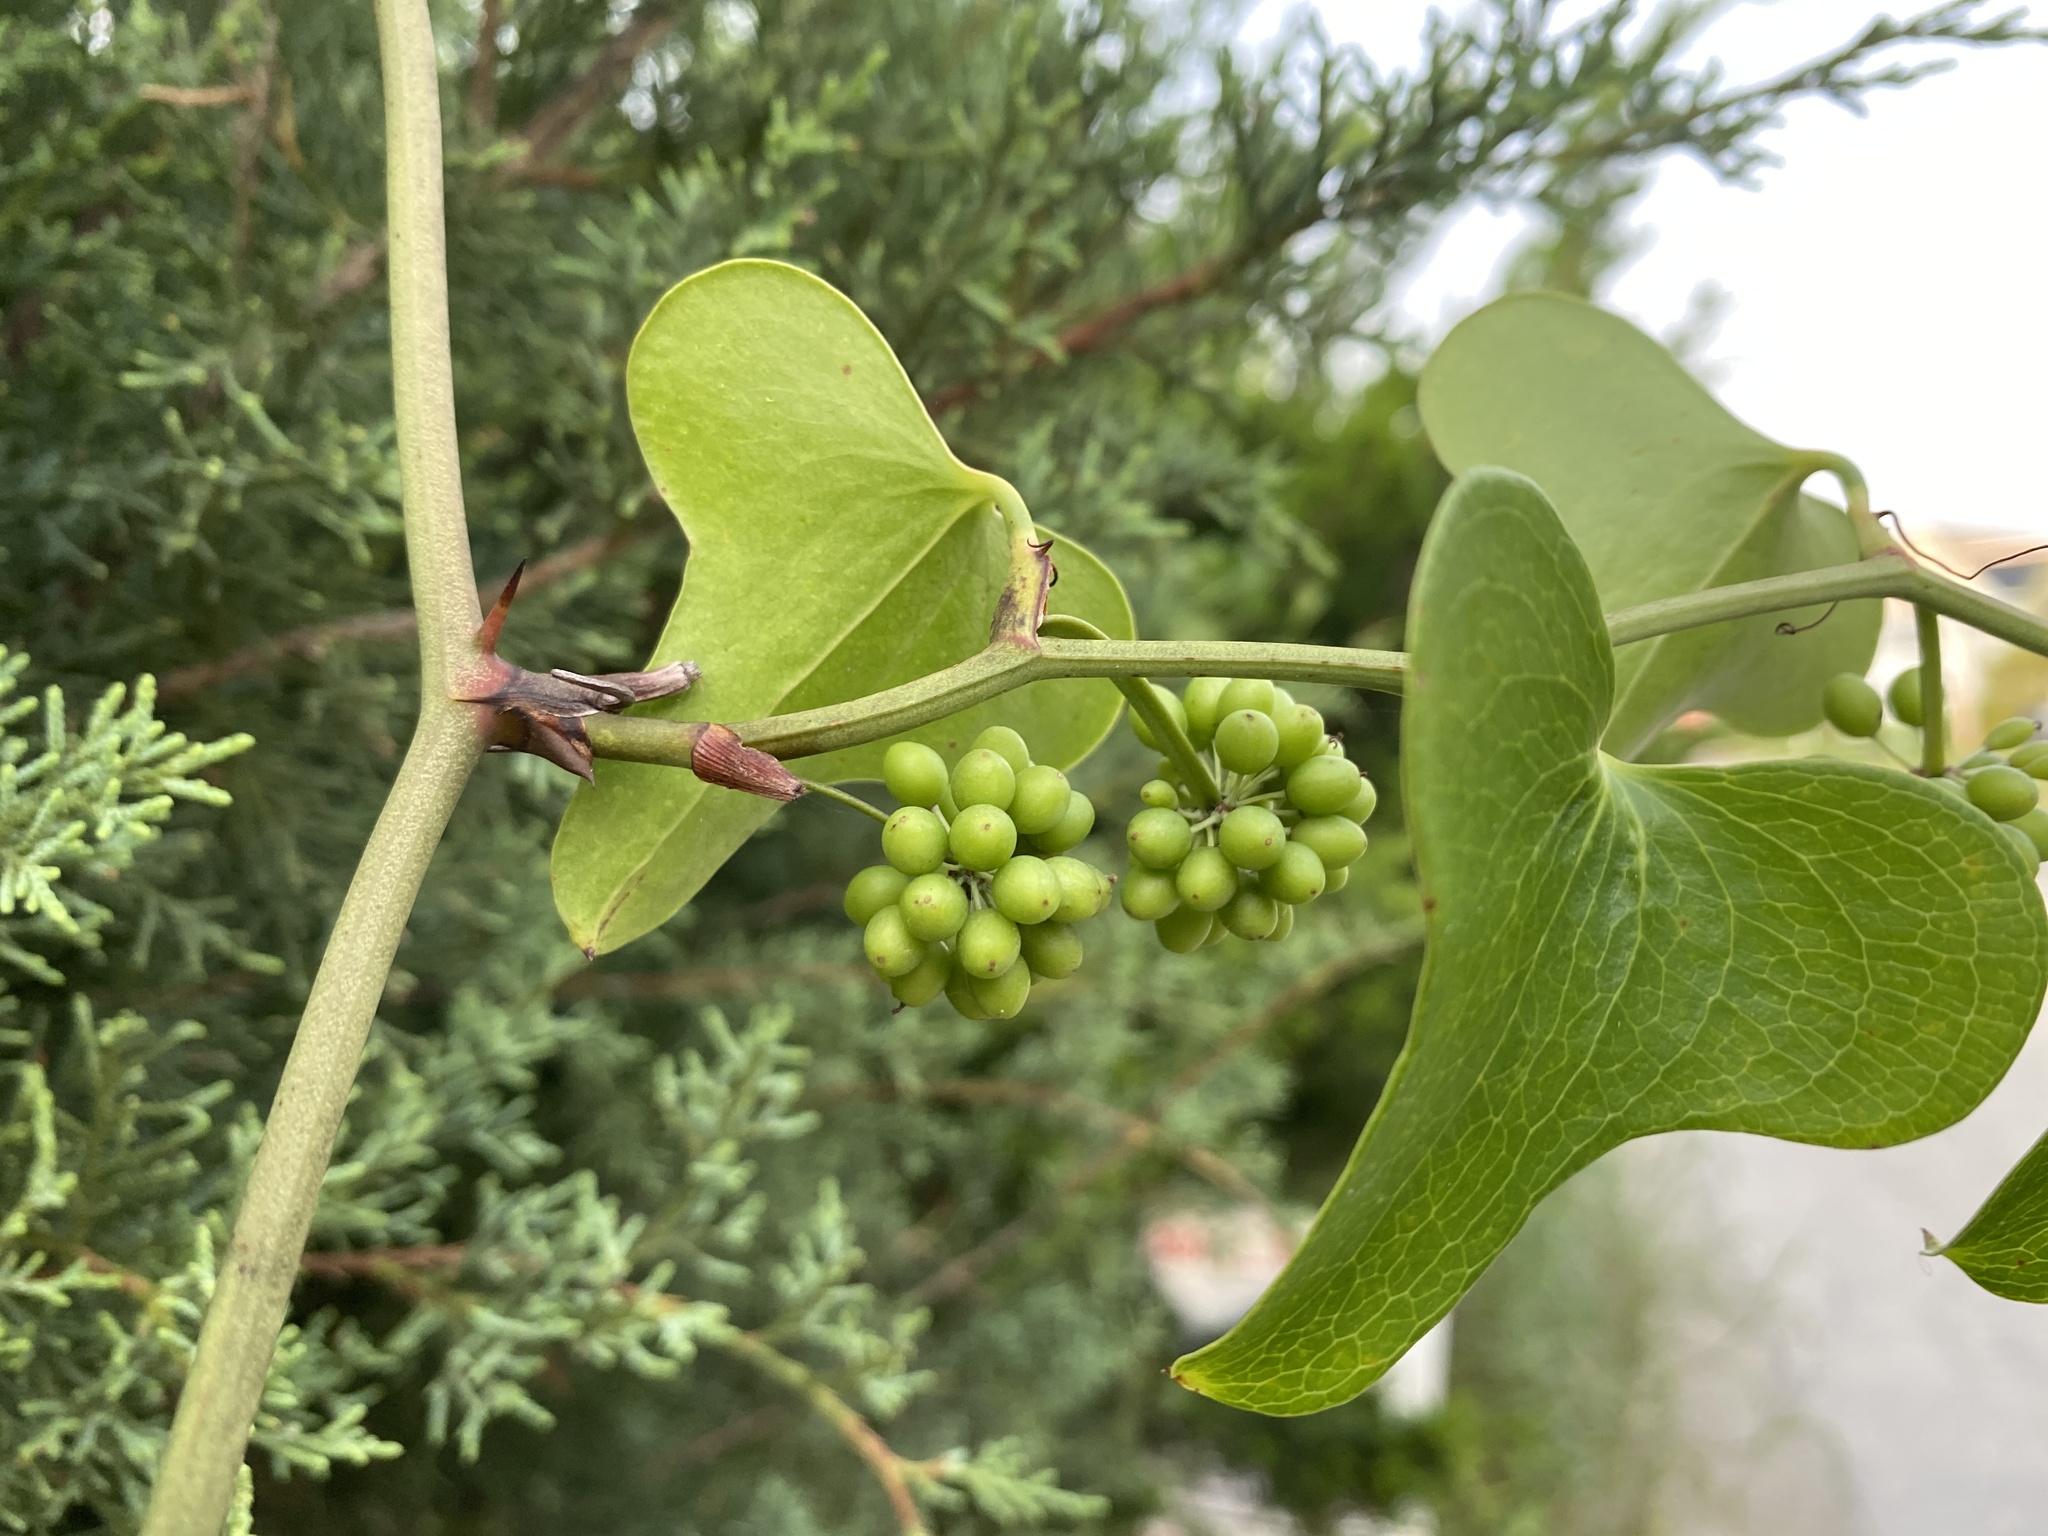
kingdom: Plantae
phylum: Tracheophyta
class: Liliopsida
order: Liliales
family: Smilacaceae
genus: Smilax
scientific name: Smilax bona-nox
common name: Catbrier
